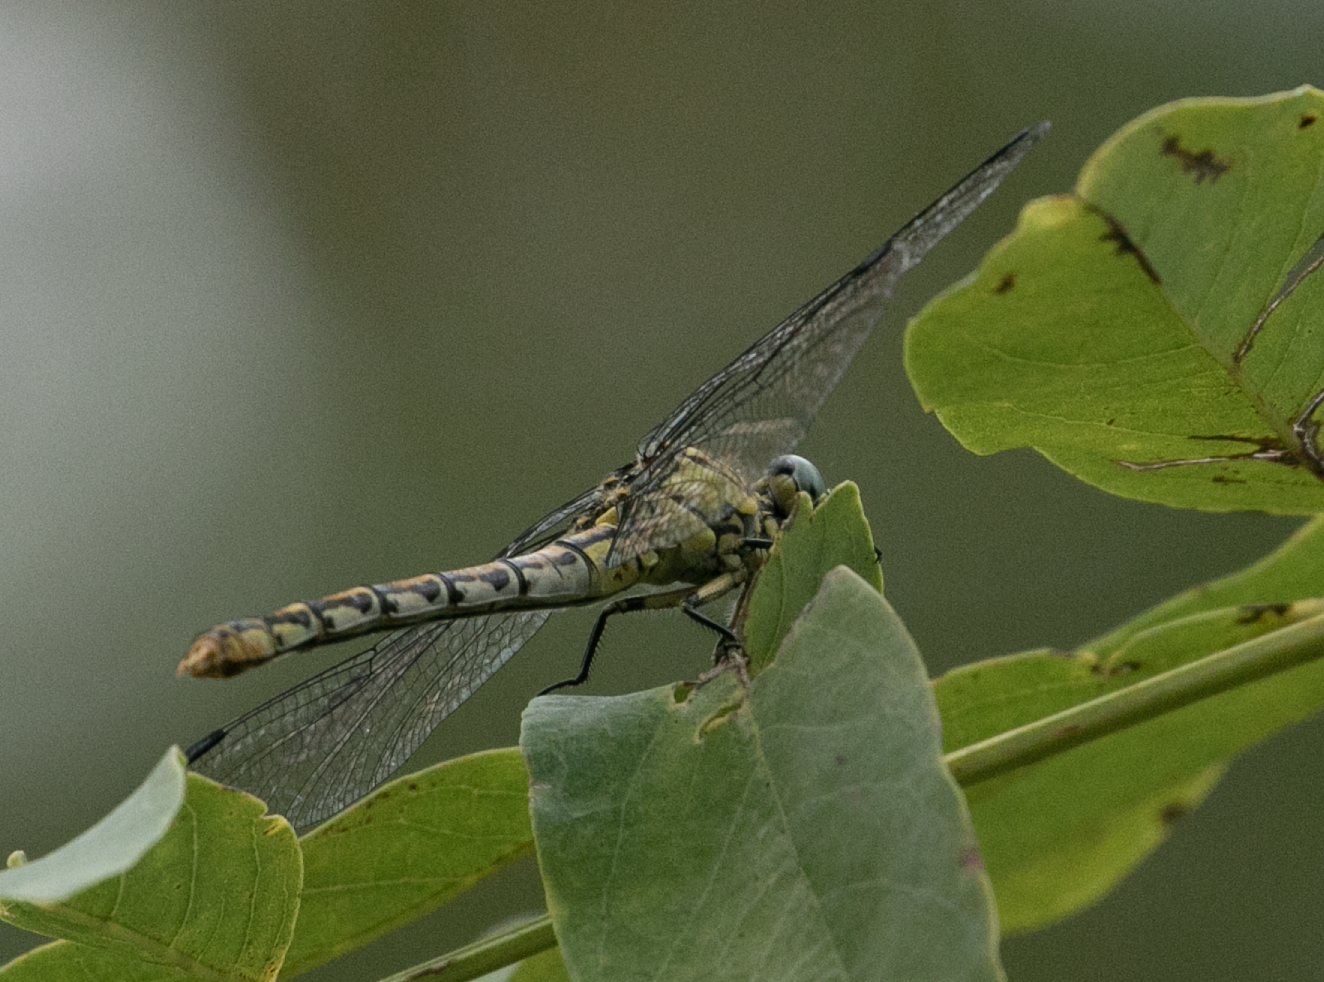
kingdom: Animalia
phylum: Arthropoda
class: Insecta
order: Odonata
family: Gomphidae
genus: Onychogomphus
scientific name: Onychogomphus forcipatus
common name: Small pincertail
